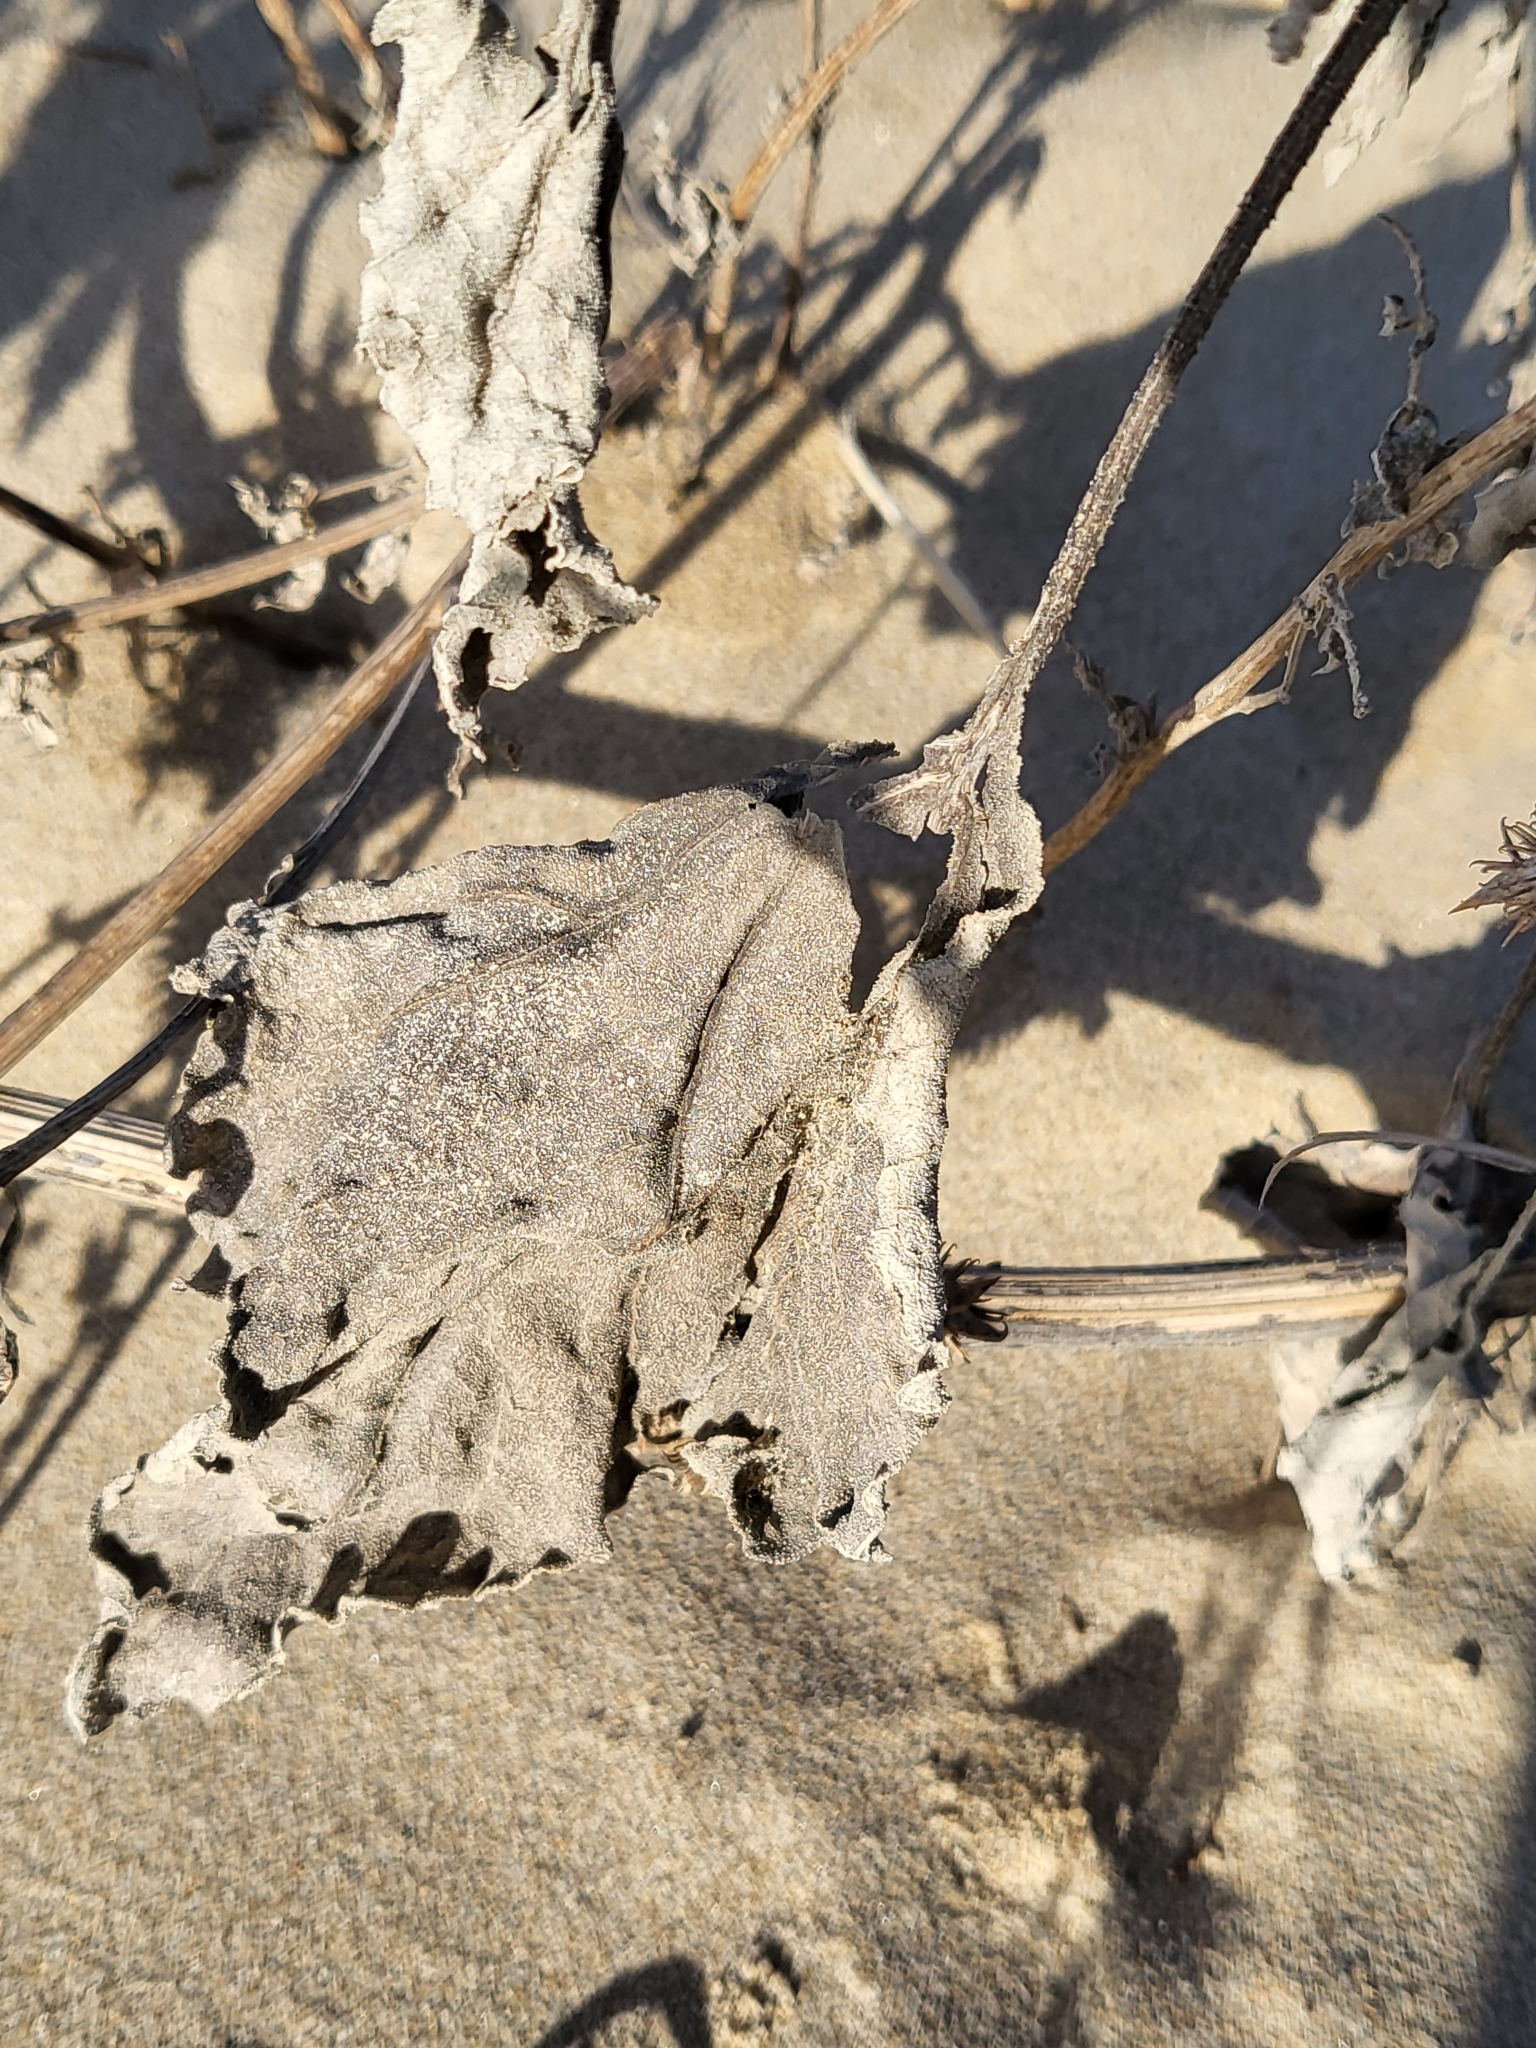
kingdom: Plantae
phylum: Tracheophyta
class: Magnoliopsida
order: Asterales
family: Asteraceae
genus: Xanthium
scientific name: Xanthium strumarium
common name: Rough cocklebur
